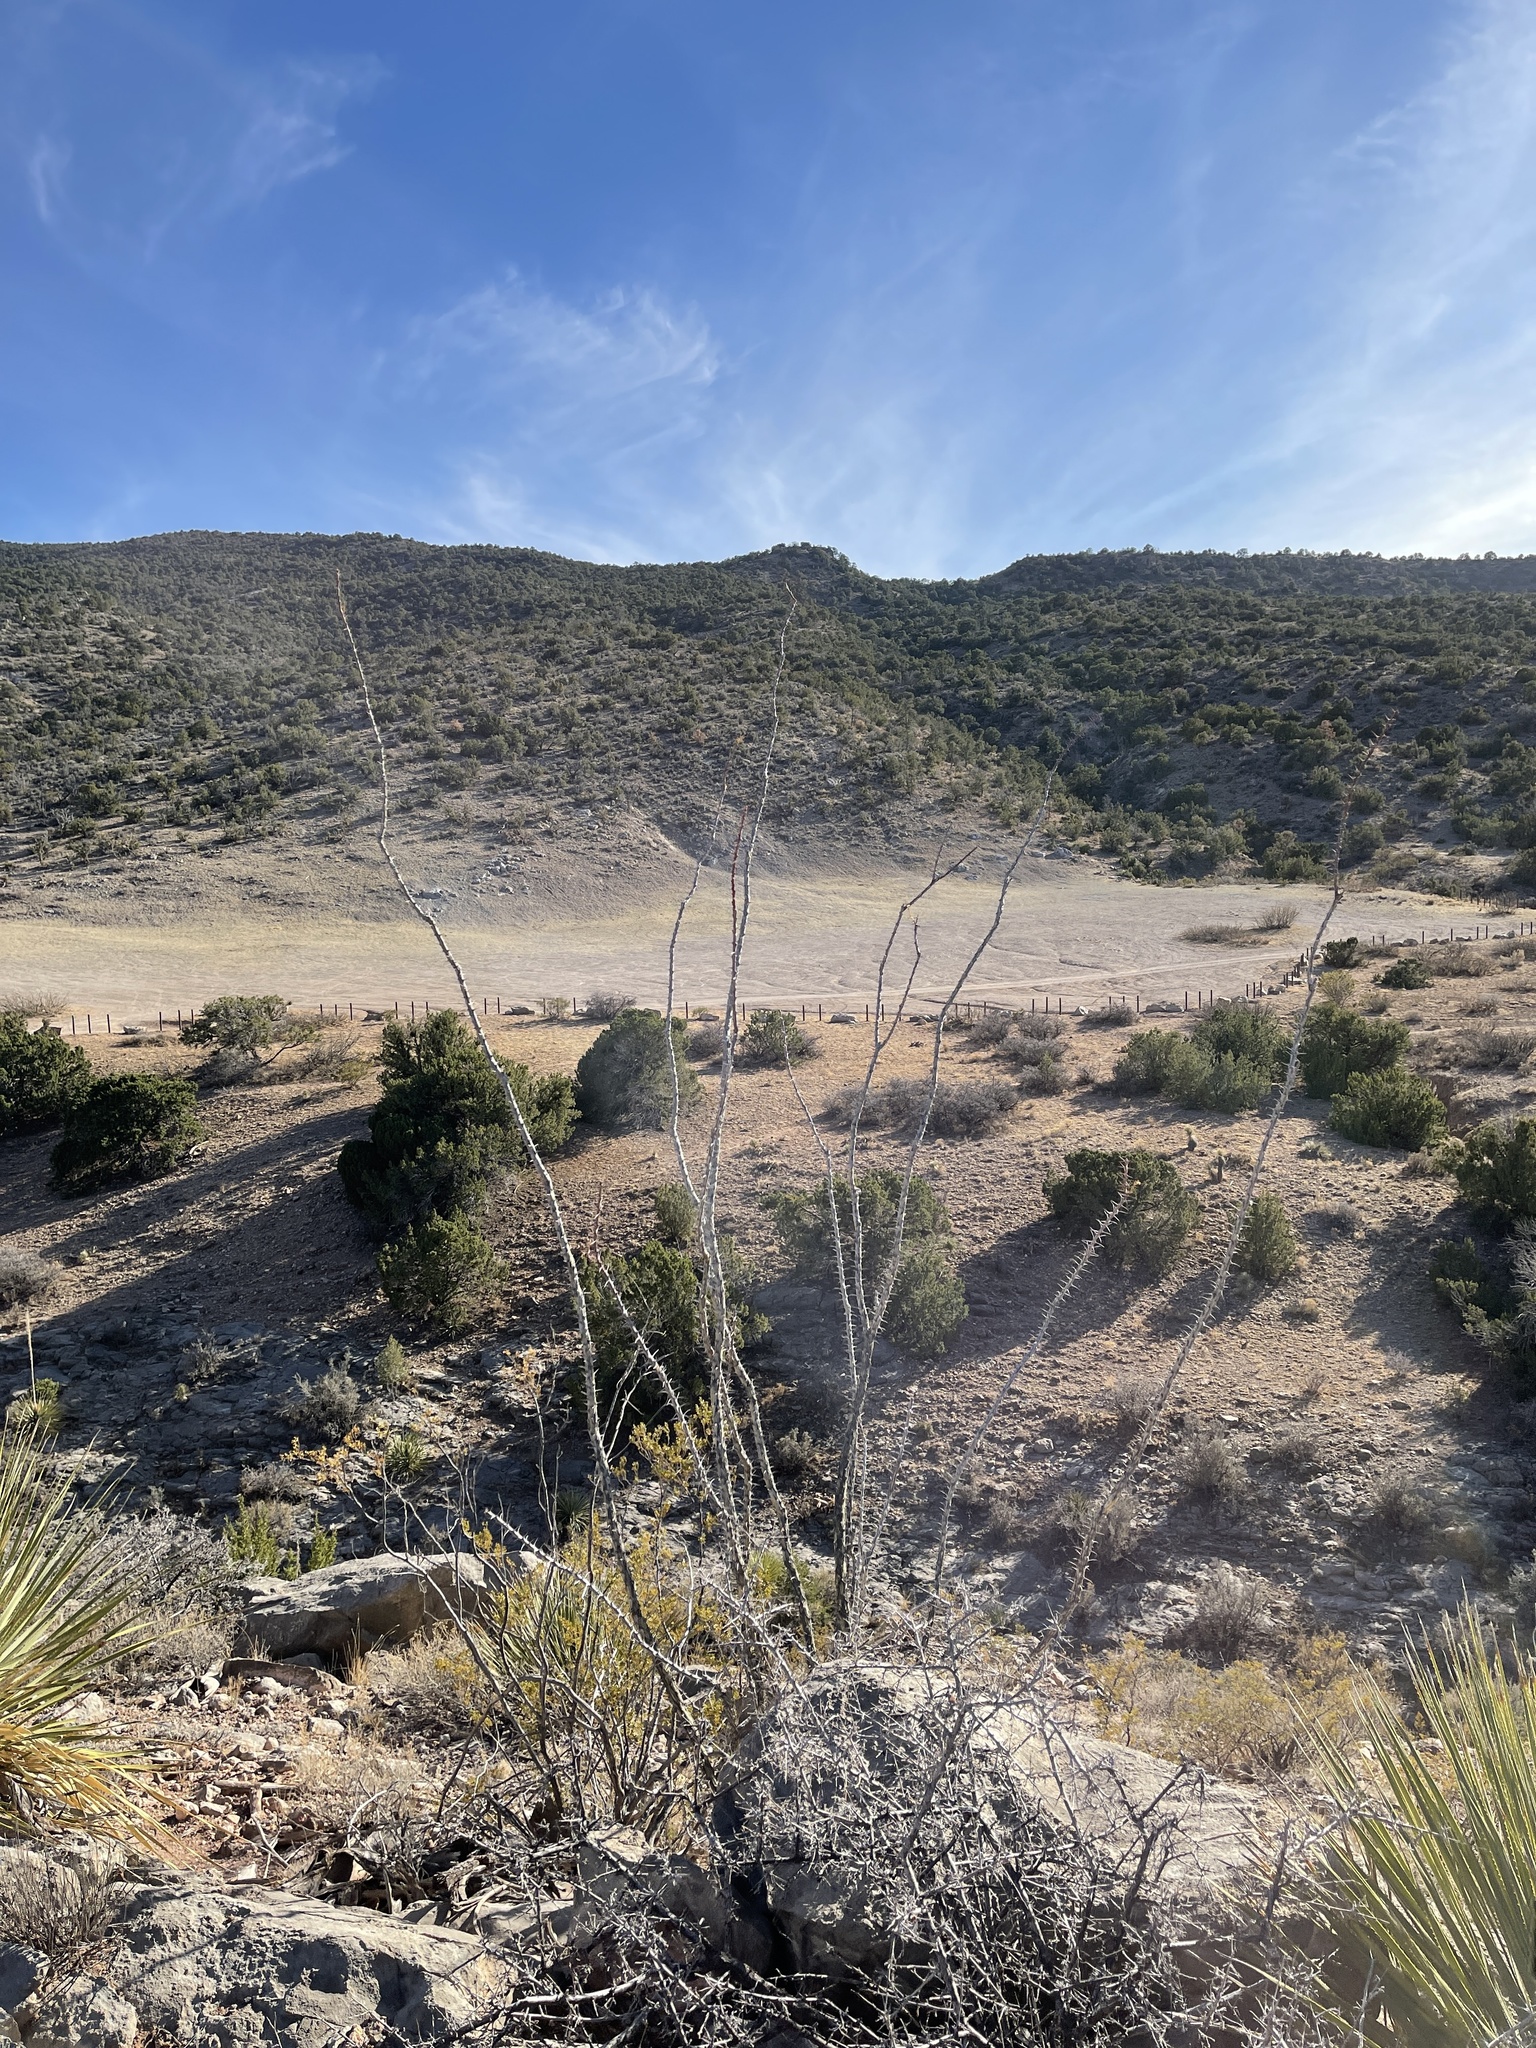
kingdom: Plantae
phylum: Tracheophyta
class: Magnoliopsida
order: Ericales
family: Fouquieriaceae
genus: Fouquieria
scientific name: Fouquieria splendens
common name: Vine-cactus
